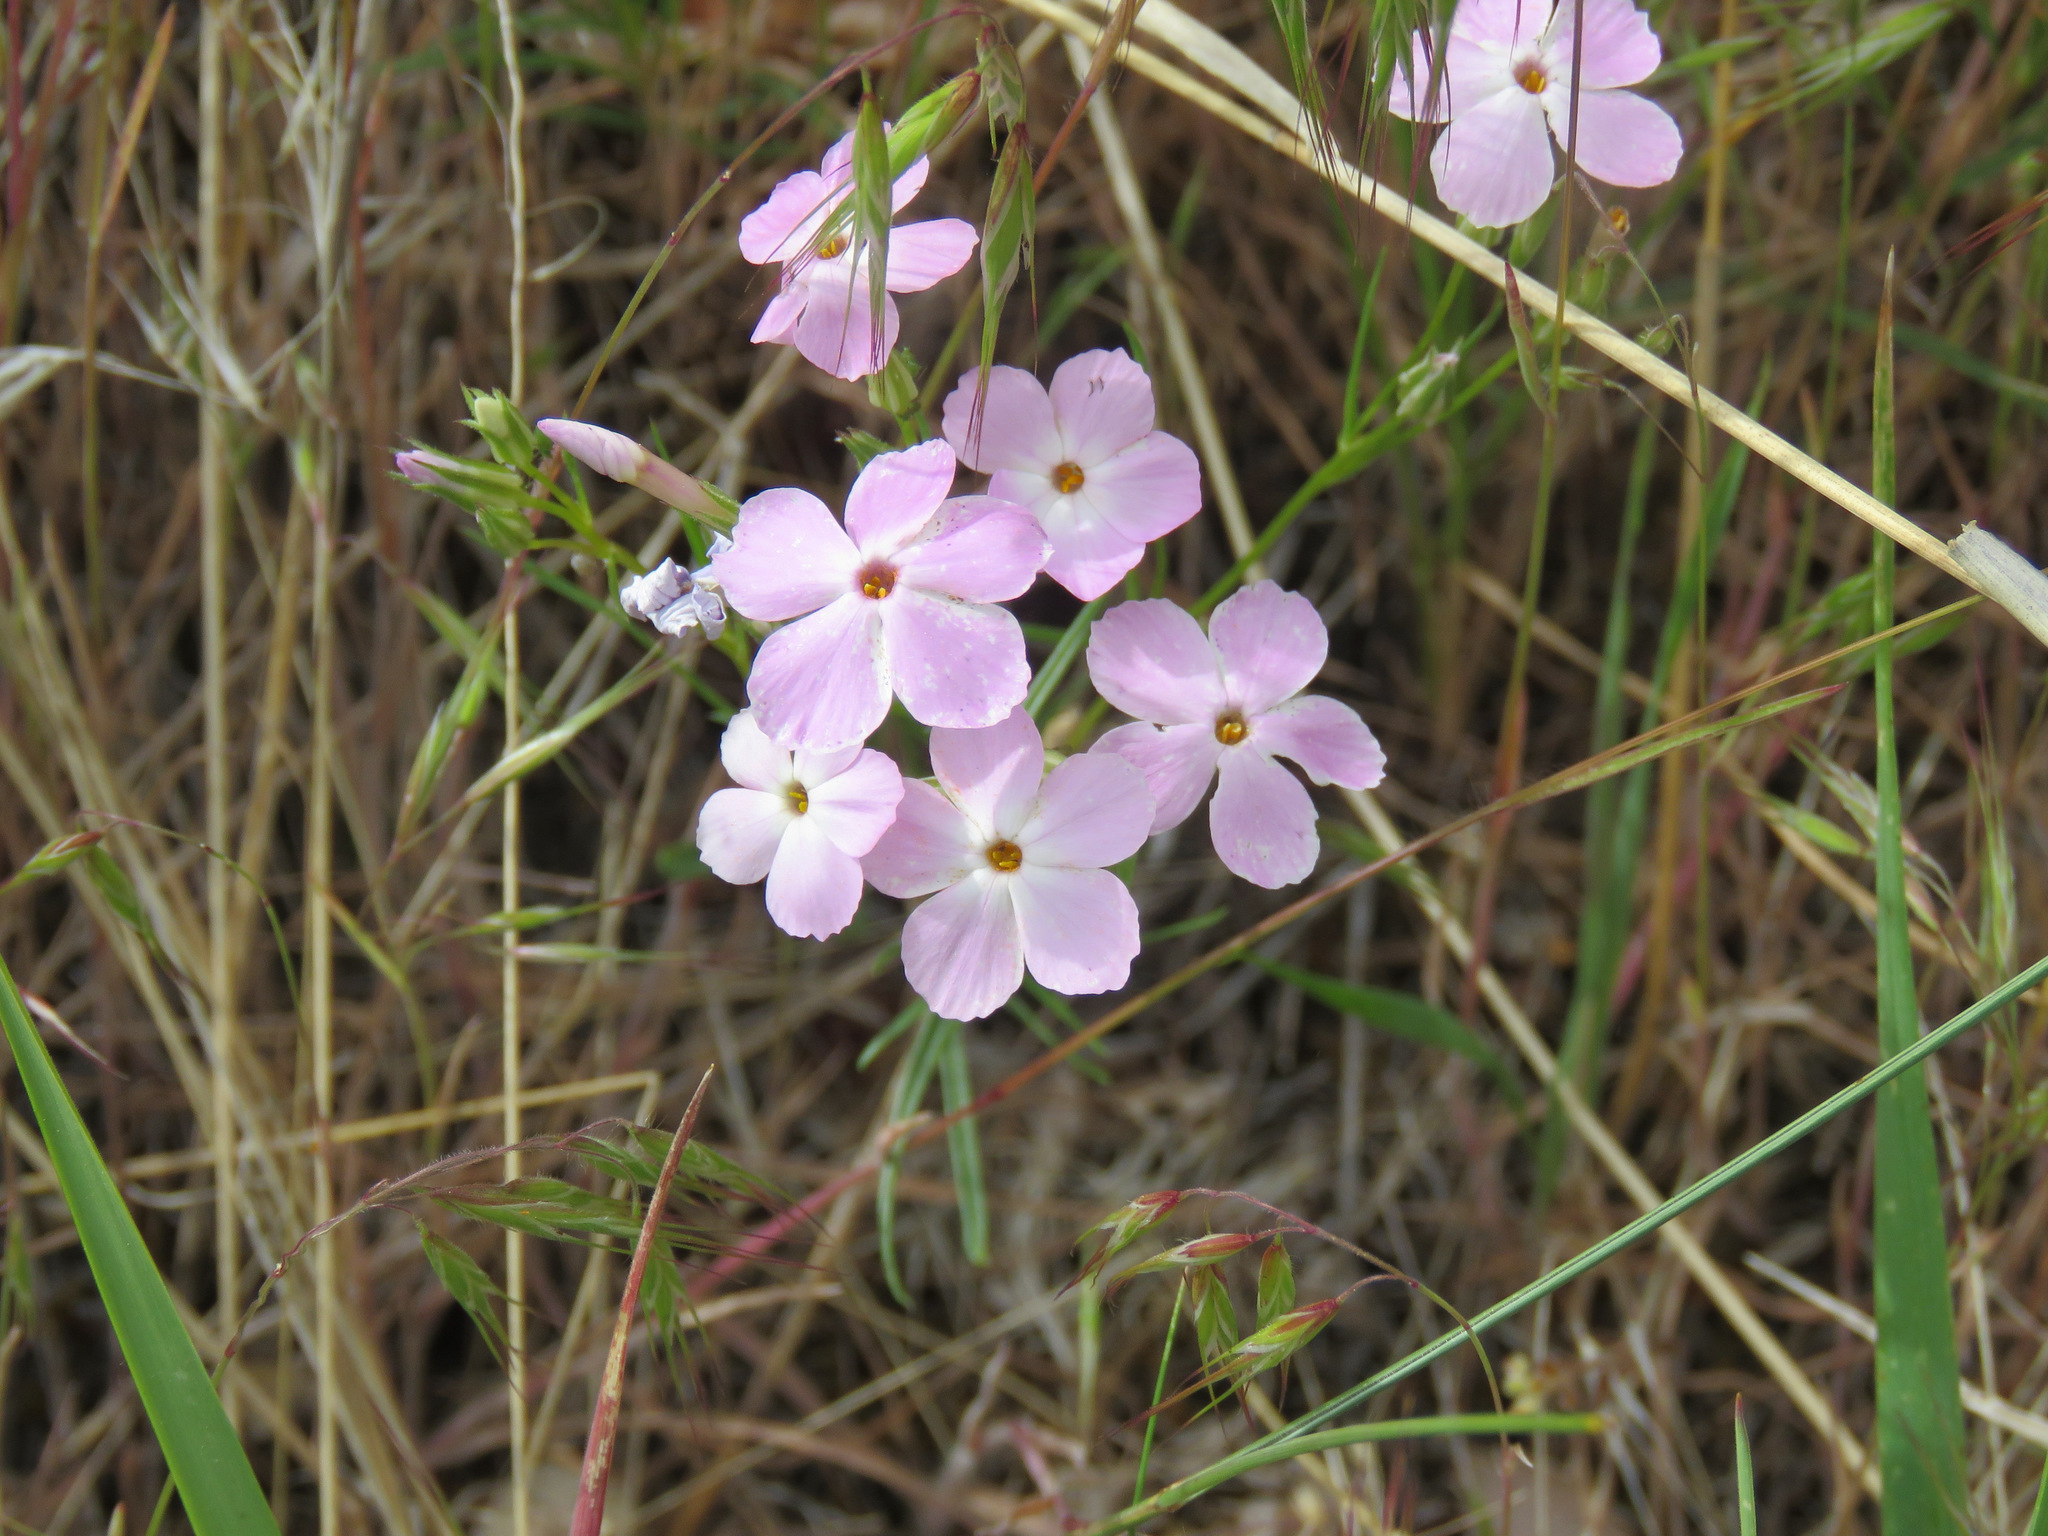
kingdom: Plantae
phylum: Tracheophyta
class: Magnoliopsida
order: Ericales
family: Polemoniaceae
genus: Phlox
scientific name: Phlox longifolia
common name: Longleaf phlox
